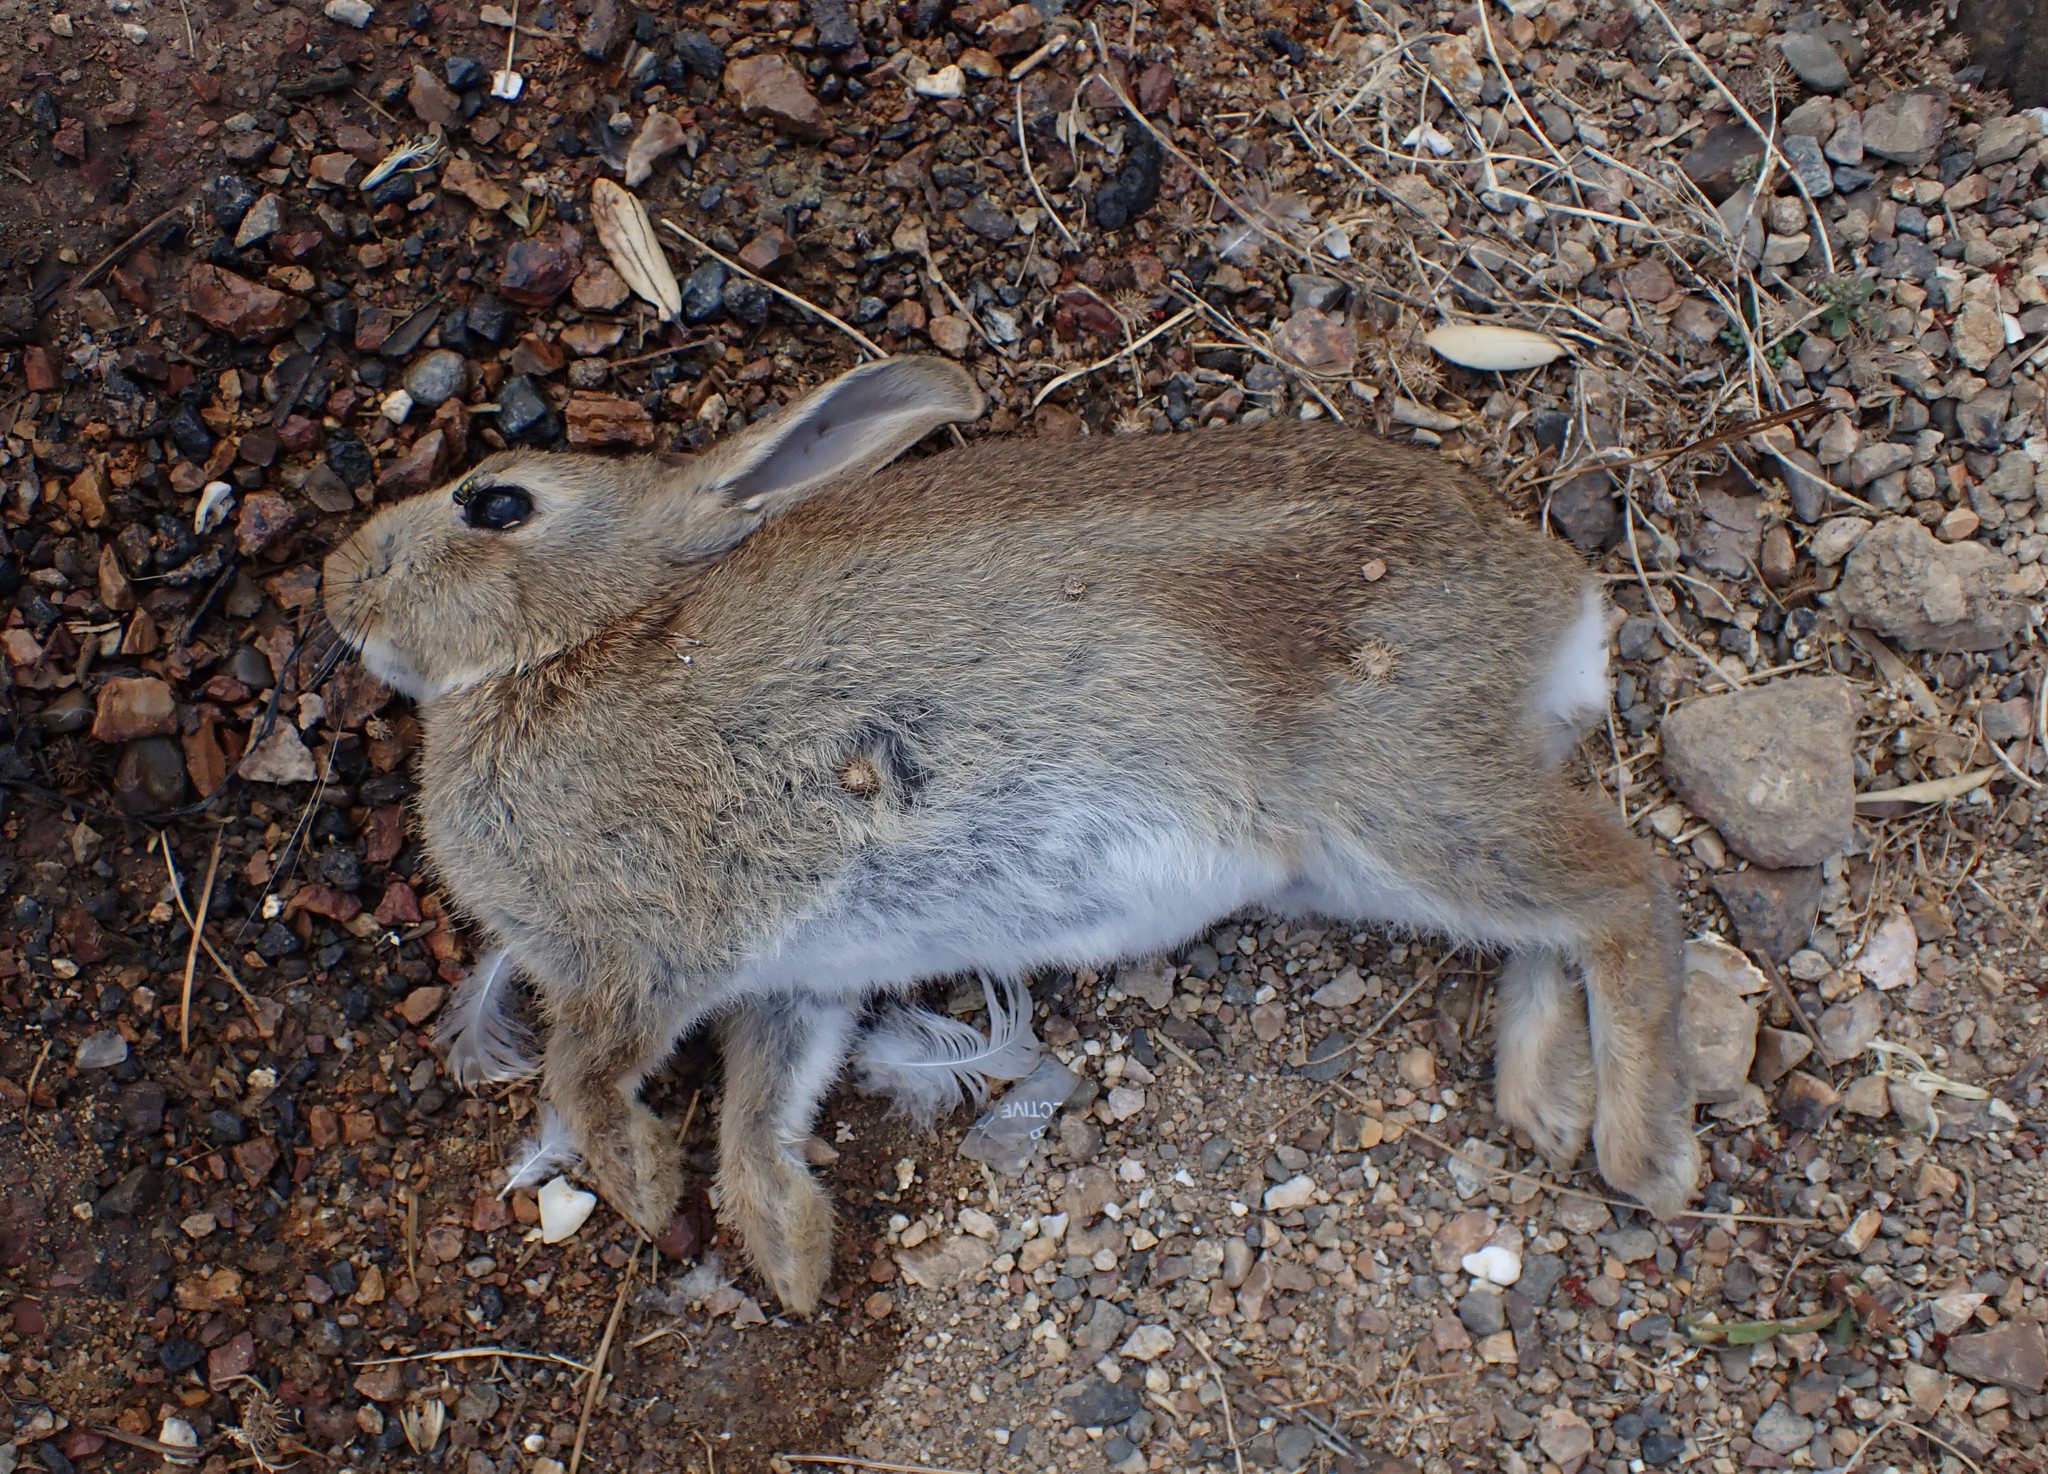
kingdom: Animalia
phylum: Chordata
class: Mammalia
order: Lagomorpha
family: Leporidae
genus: Oryctolagus
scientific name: Oryctolagus cuniculus
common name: European rabbit
